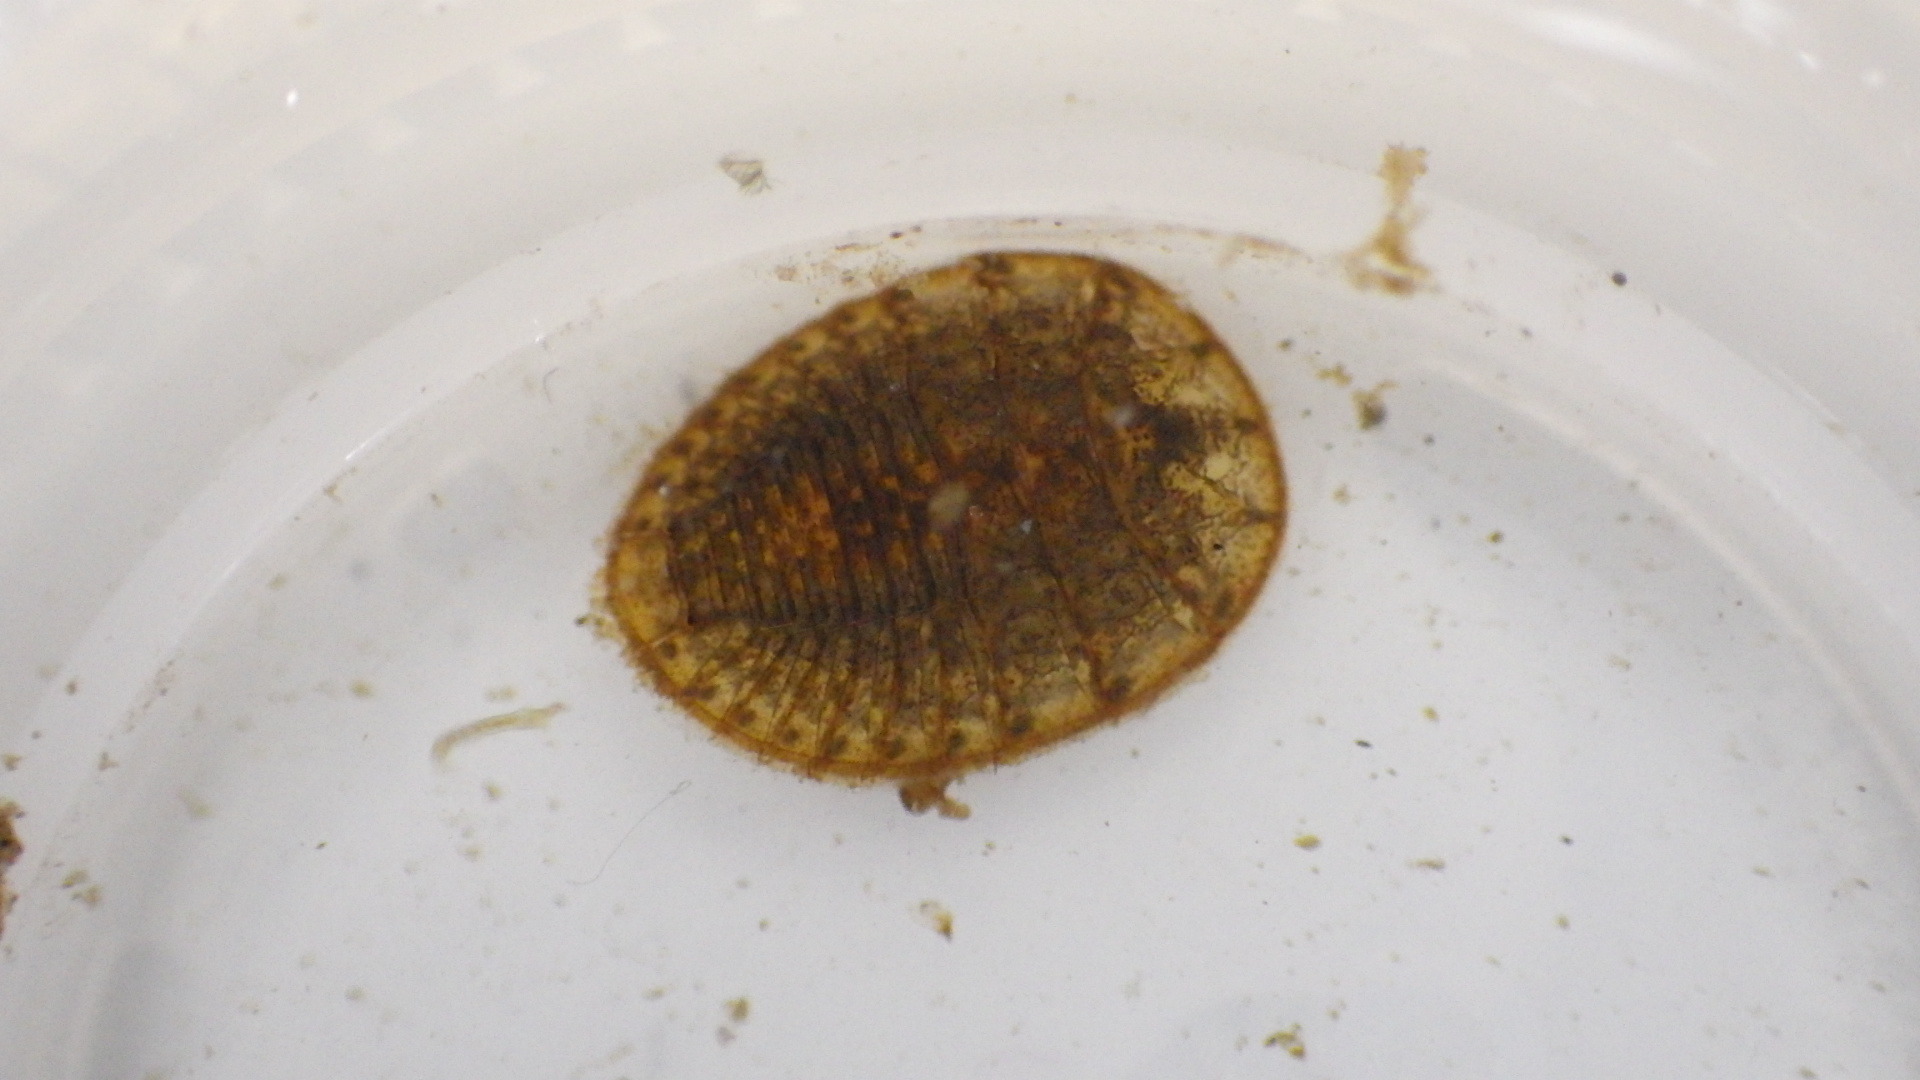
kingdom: Animalia
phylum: Arthropoda
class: Insecta
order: Coleoptera
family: Psephenidae
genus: Psephenus
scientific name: Psephenus herricki
